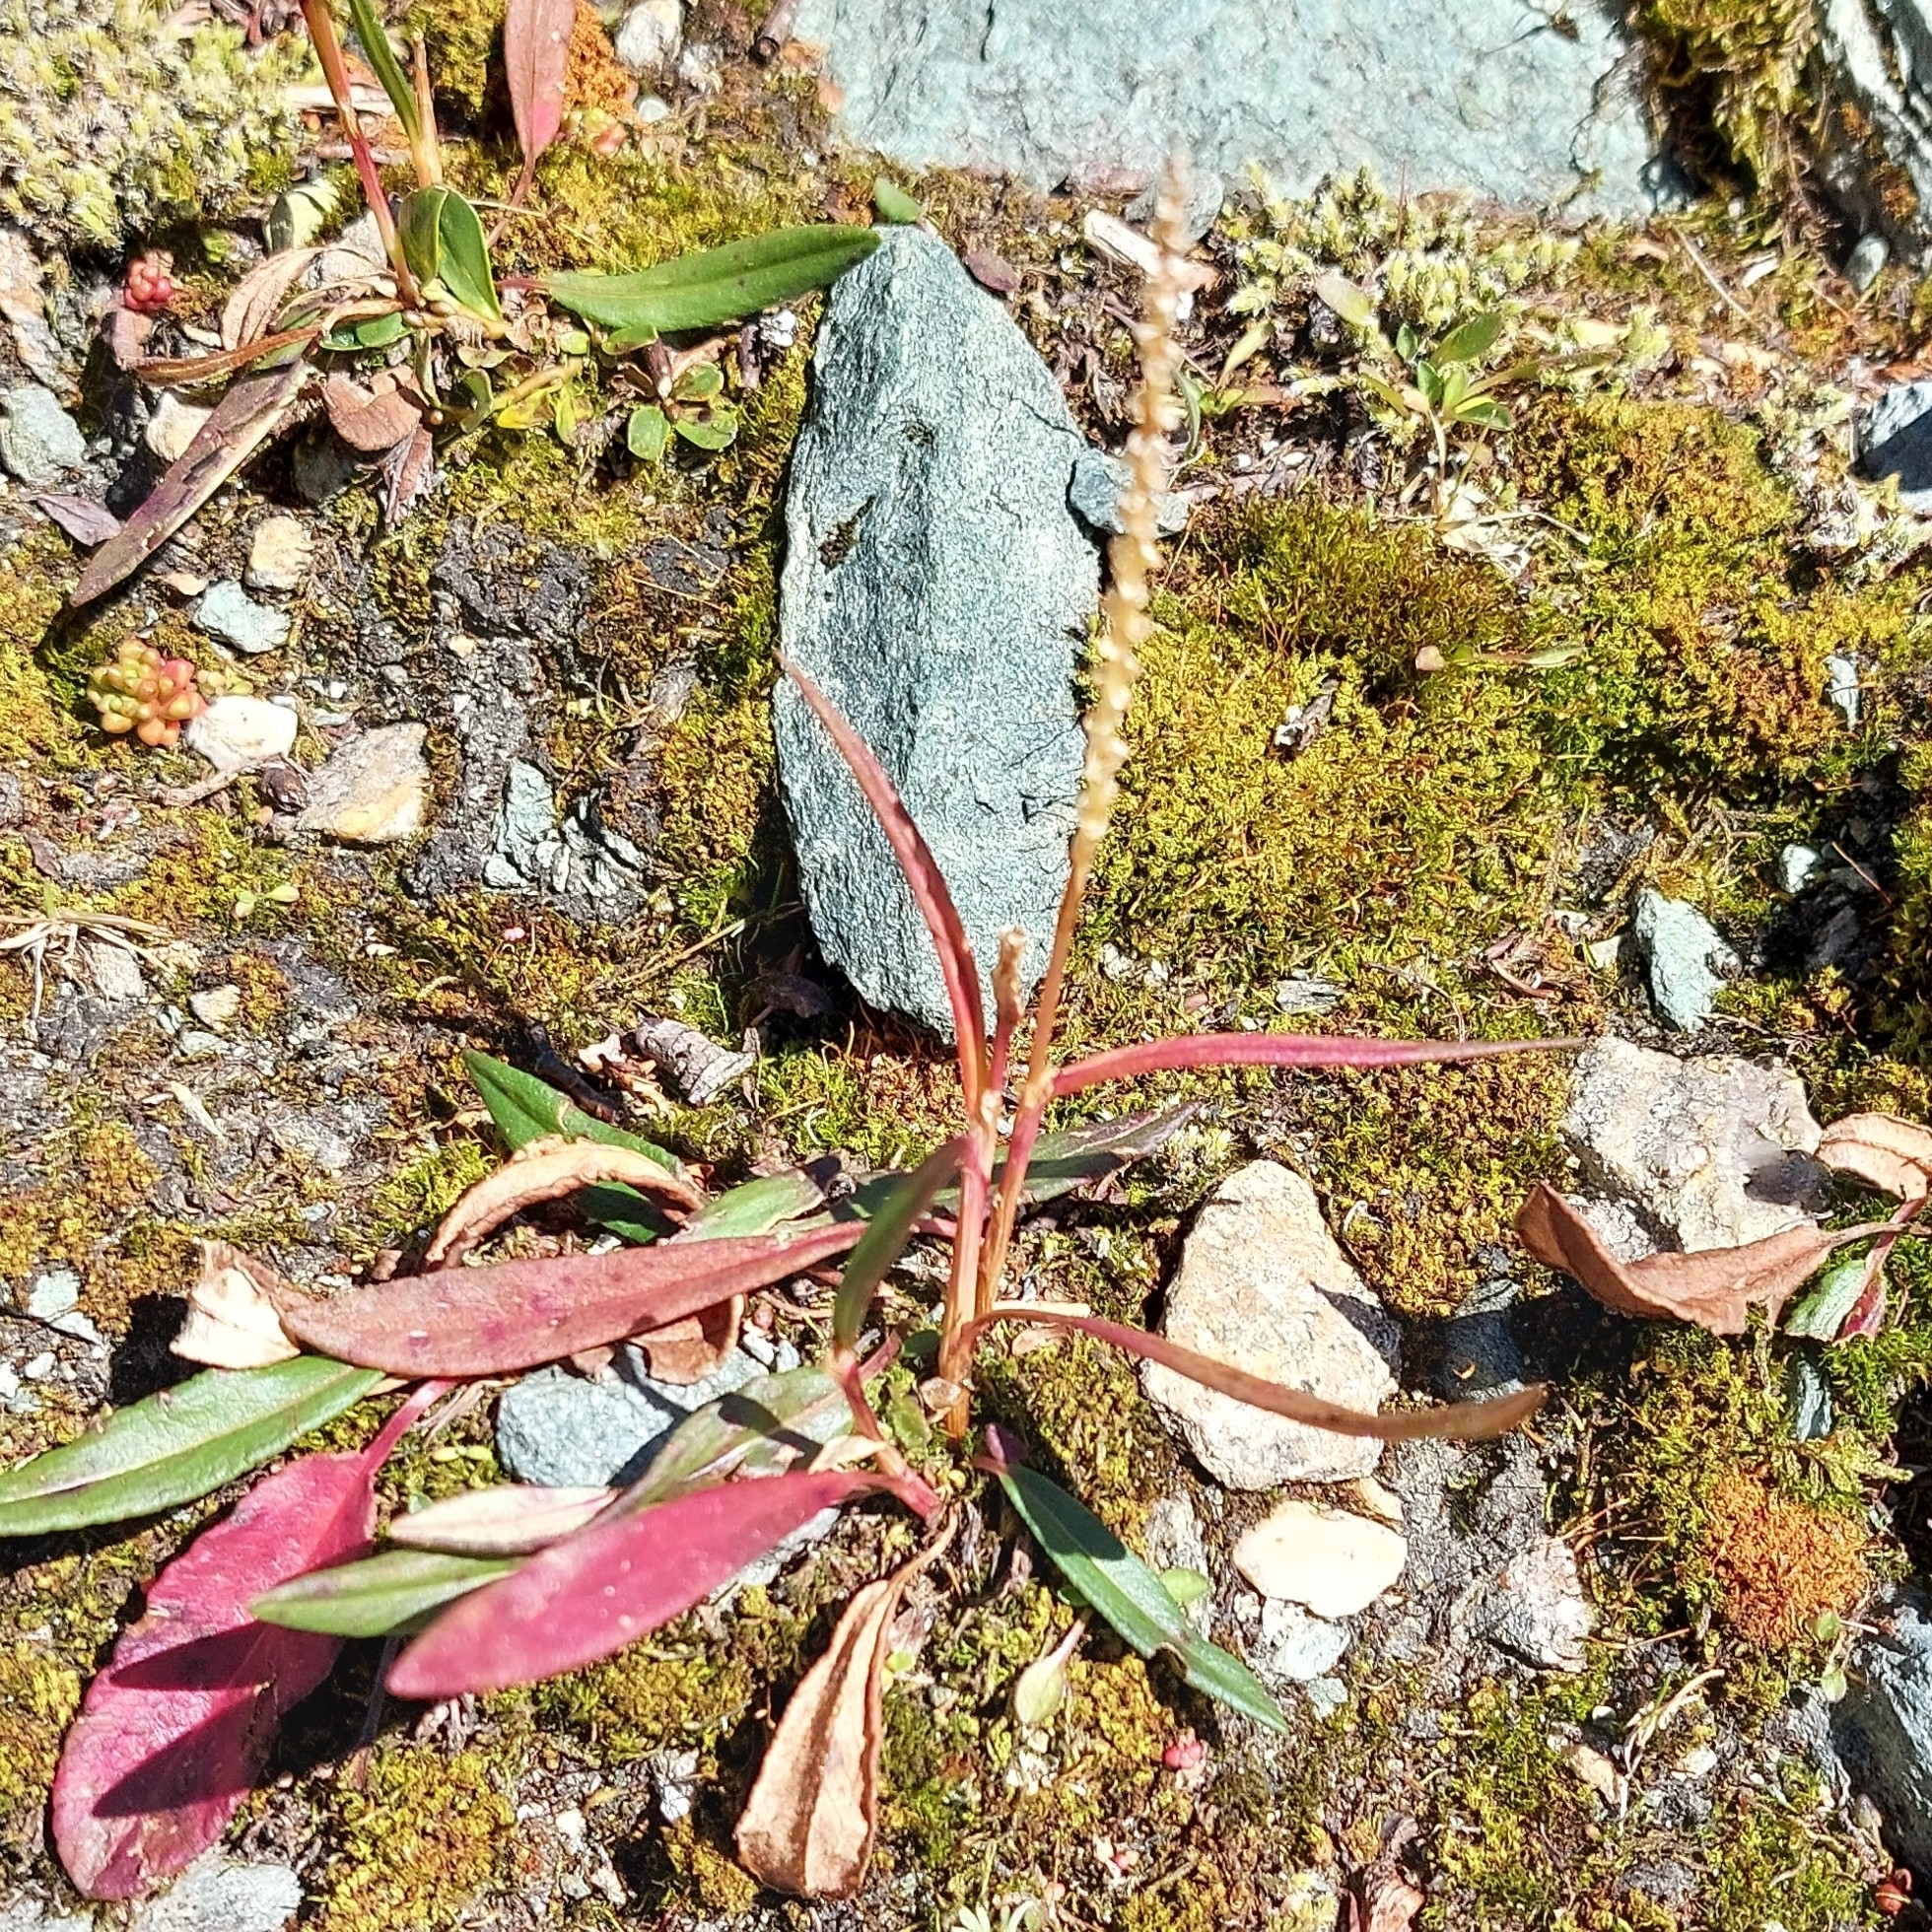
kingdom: Plantae
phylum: Tracheophyta
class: Magnoliopsida
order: Caryophyllales
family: Polygonaceae
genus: Bistorta
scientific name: Bistorta vivipara
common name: Alpine bistort
